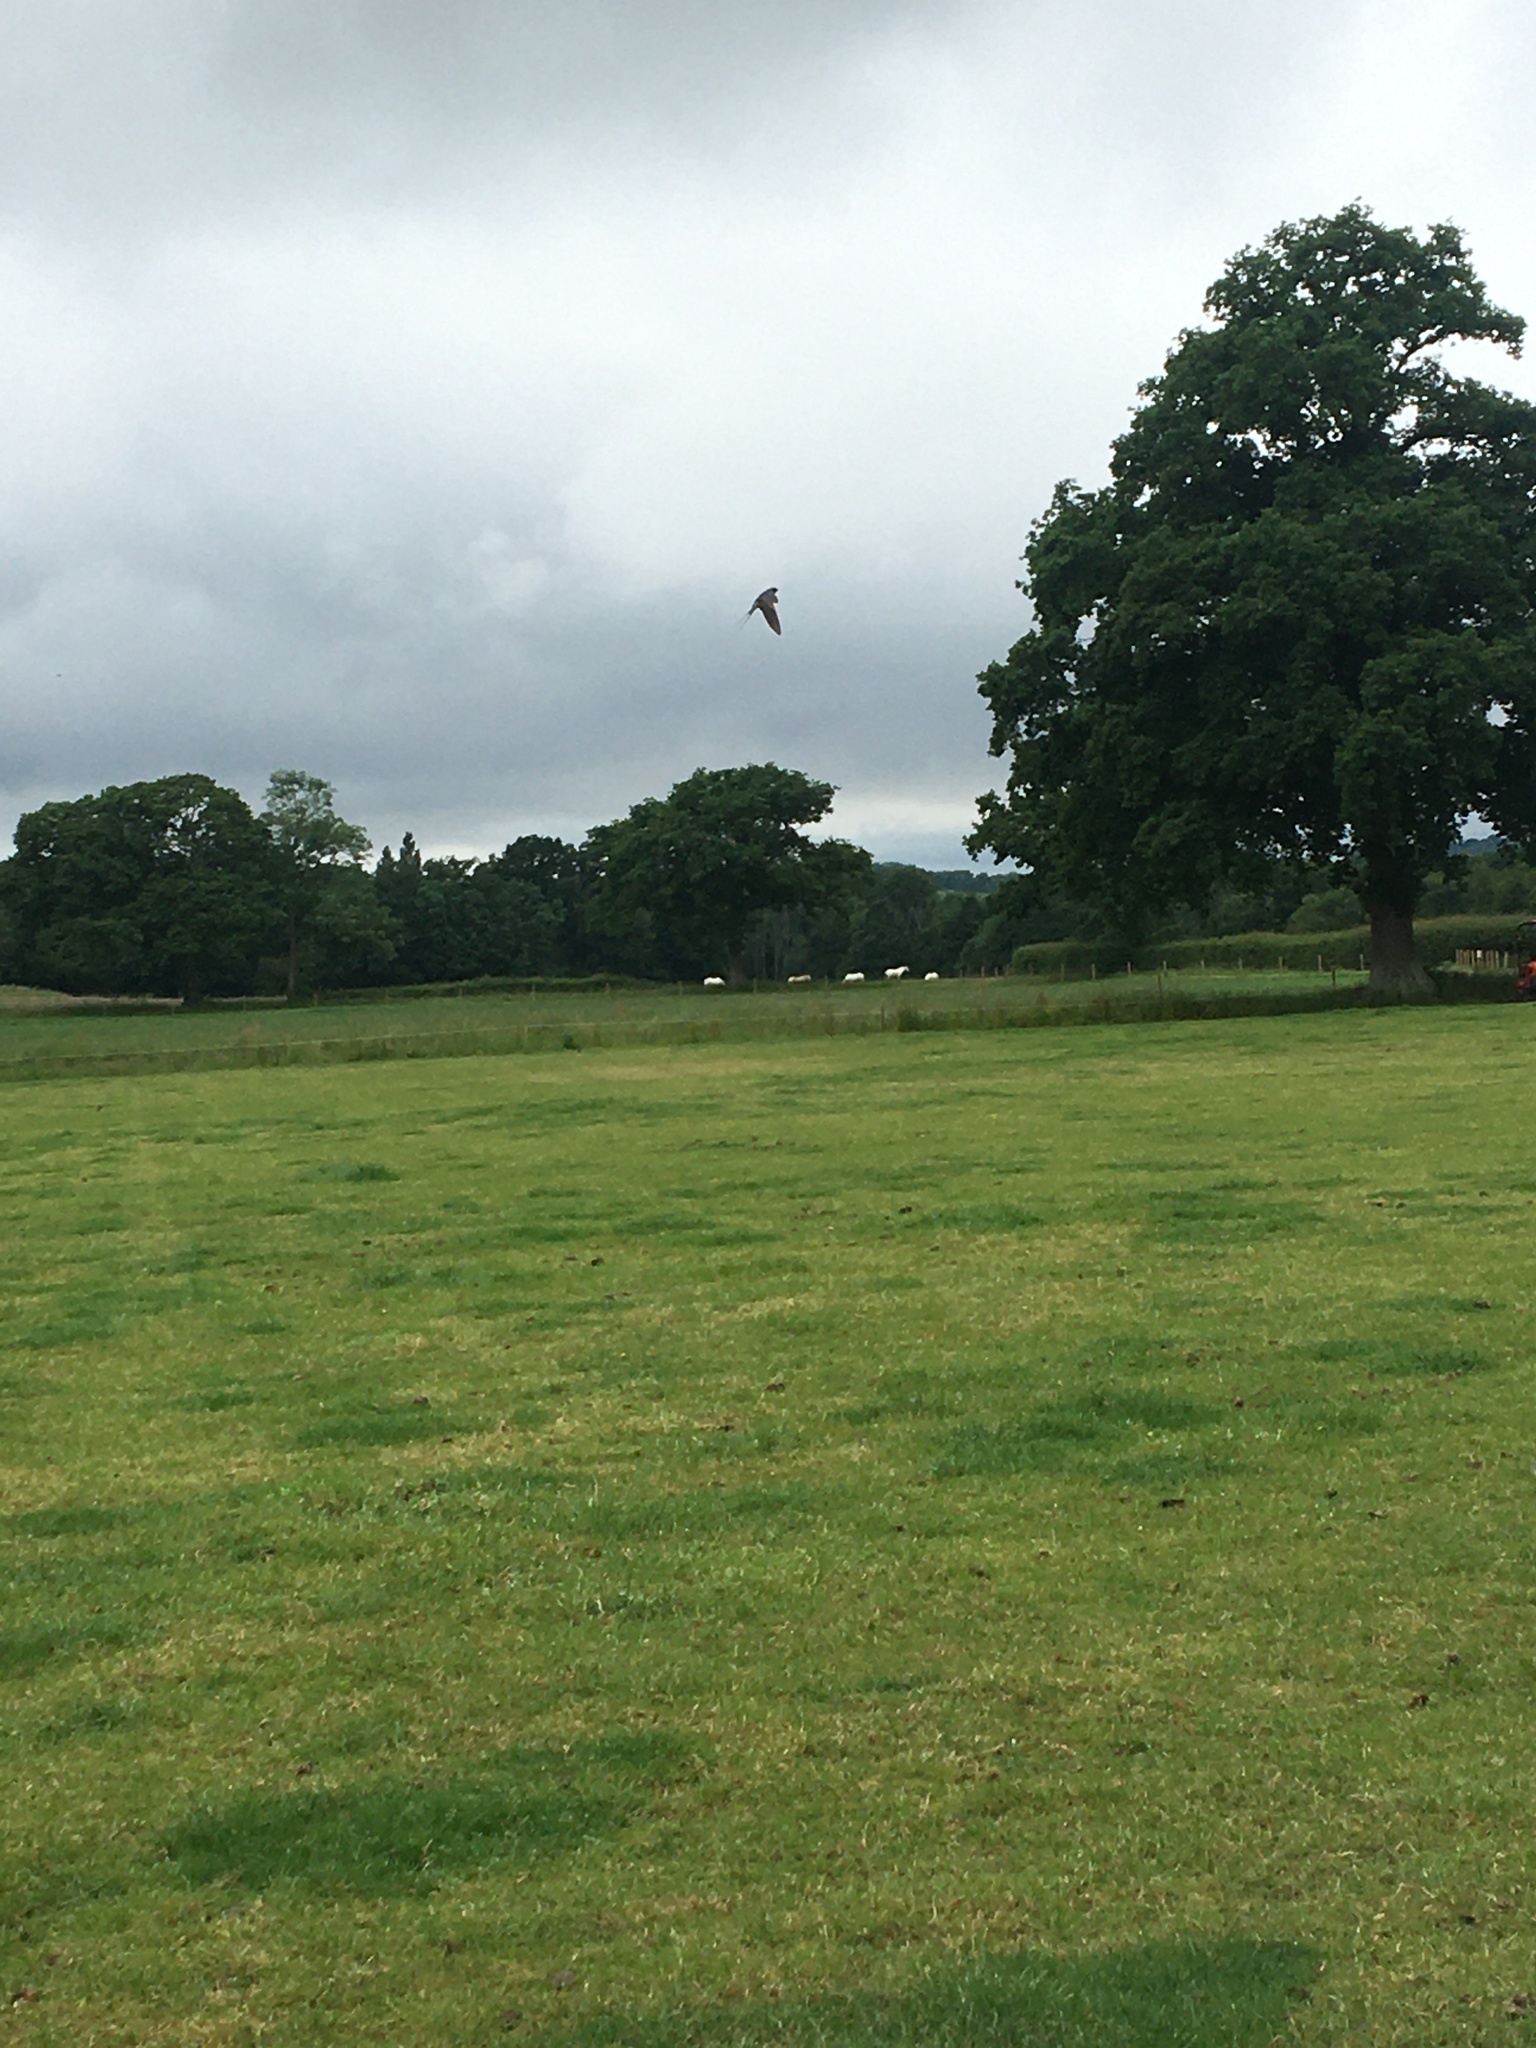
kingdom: Animalia
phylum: Chordata
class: Aves
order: Passeriformes
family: Hirundinidae
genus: Hirundo
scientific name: Hirundo rustica
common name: Barn swallow
